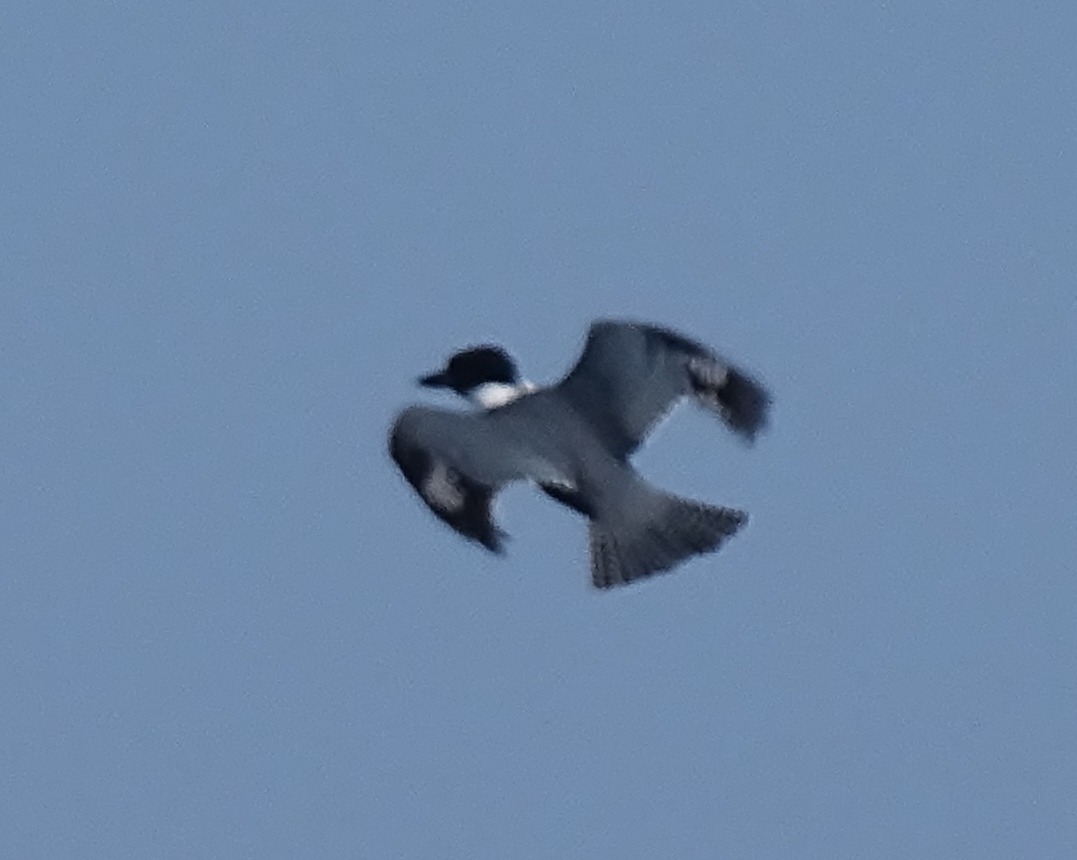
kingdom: Animalia
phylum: Chordata
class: Aves
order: Coraciiformes
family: Alcedinidae
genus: Megaceryle
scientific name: Megaceryle alcyon
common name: Belted kingfisher
